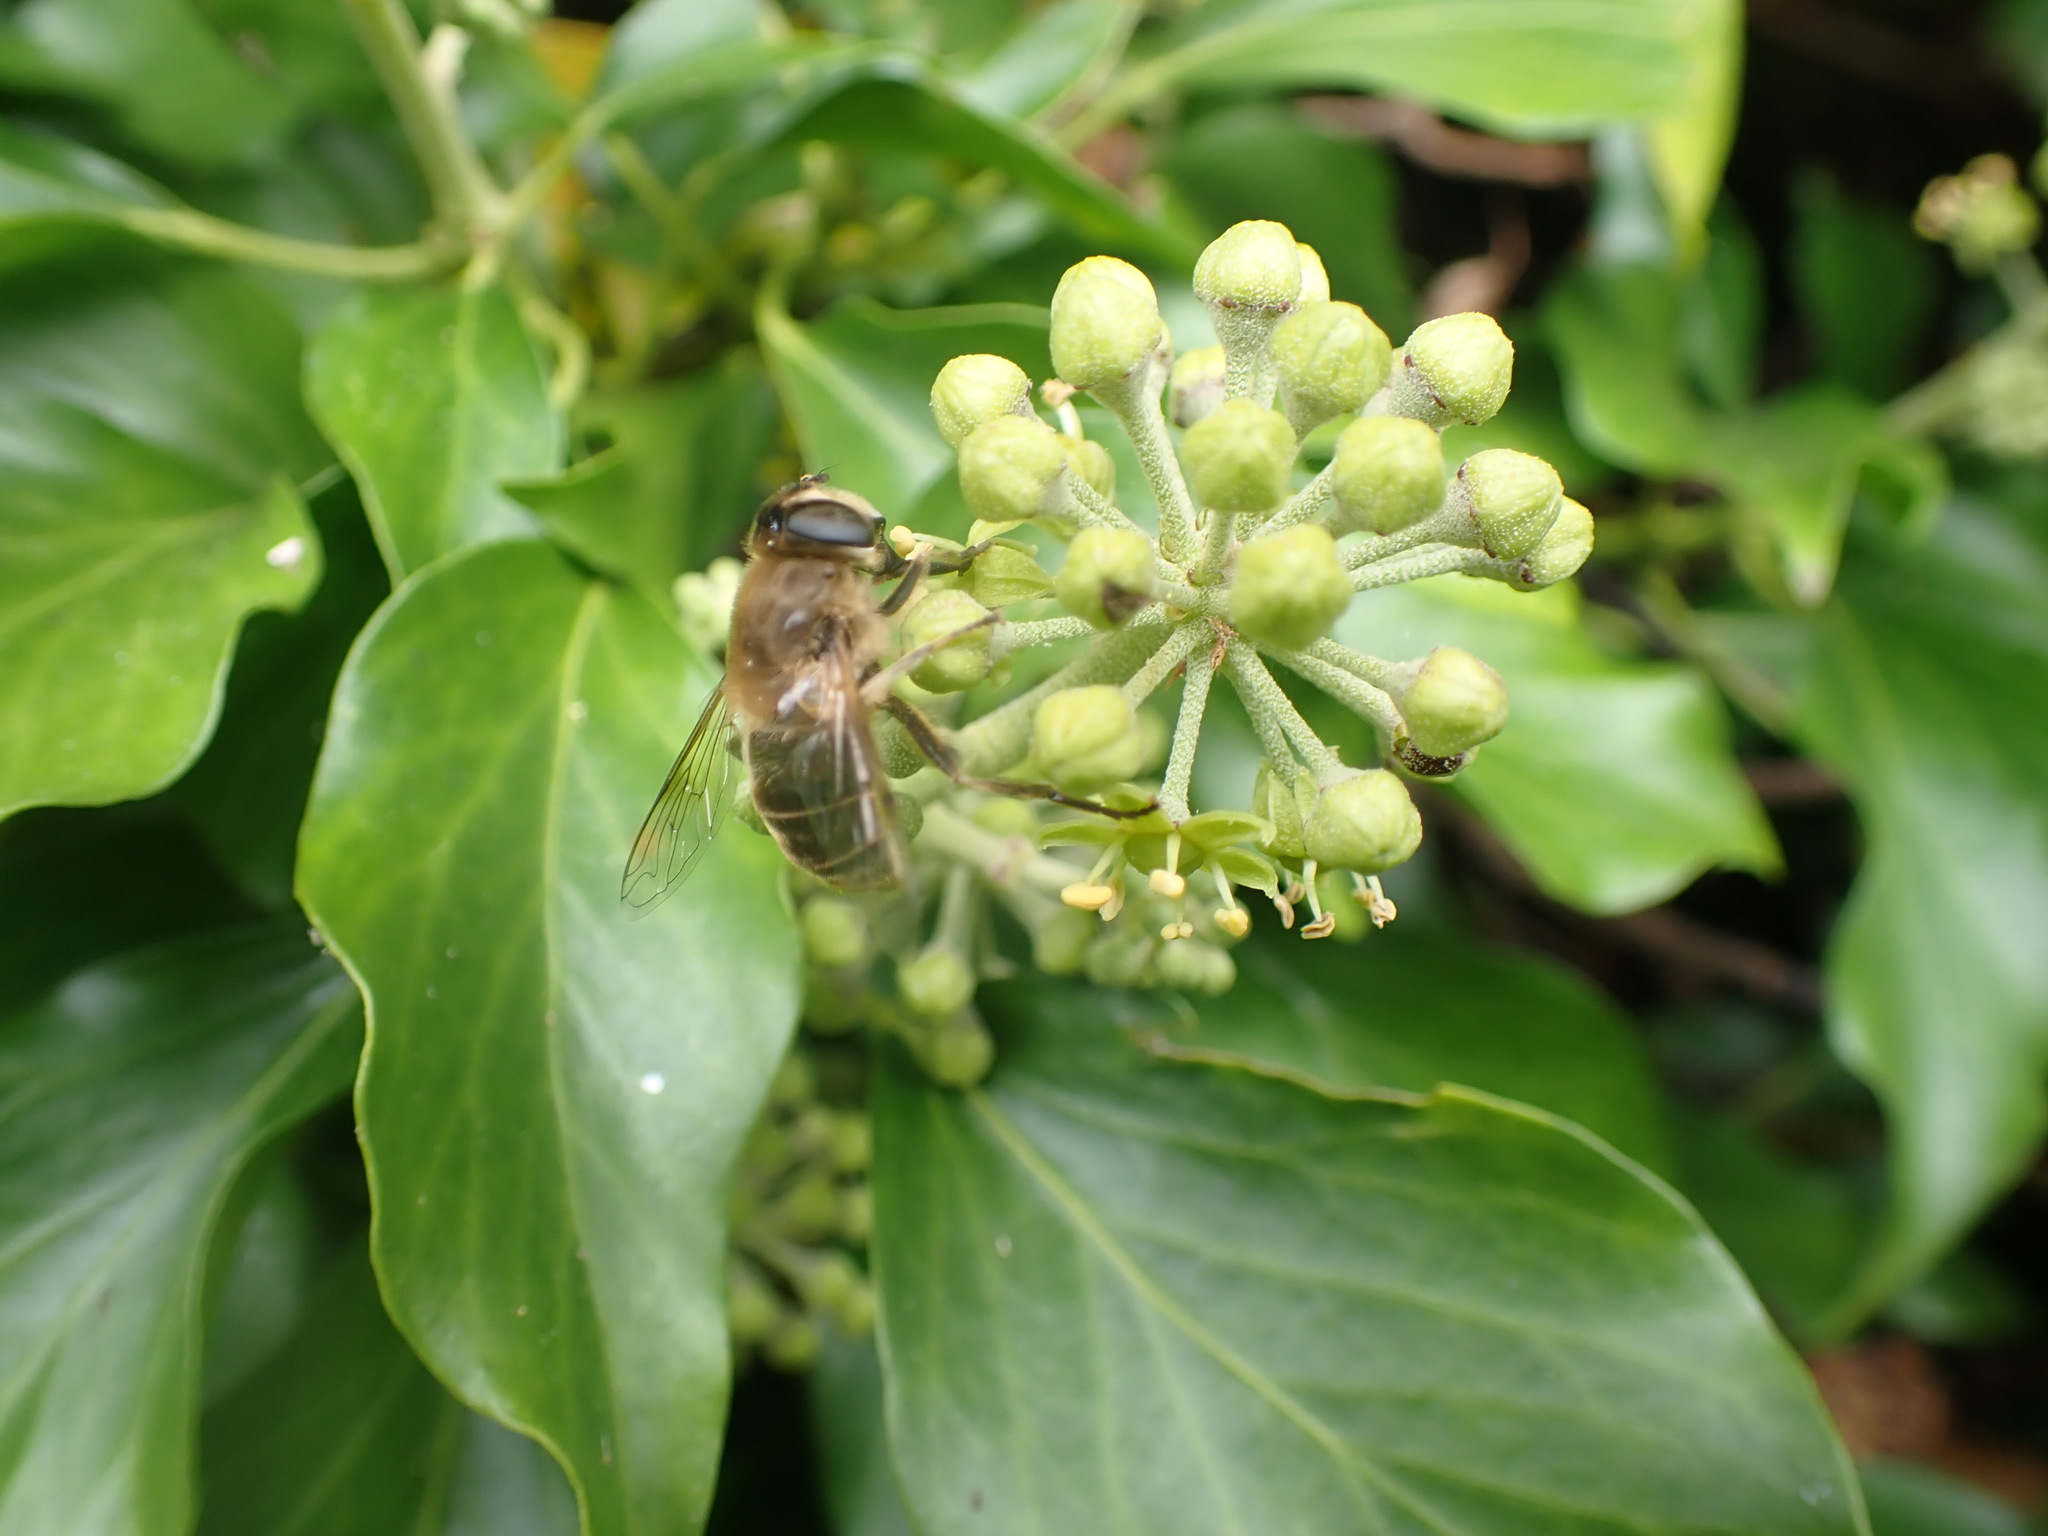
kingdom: Animalia
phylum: Arthropoda
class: Insecta
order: Diptera
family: Syrphidae
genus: Eristalis
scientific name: Eristalis tenax
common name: Drone fly
